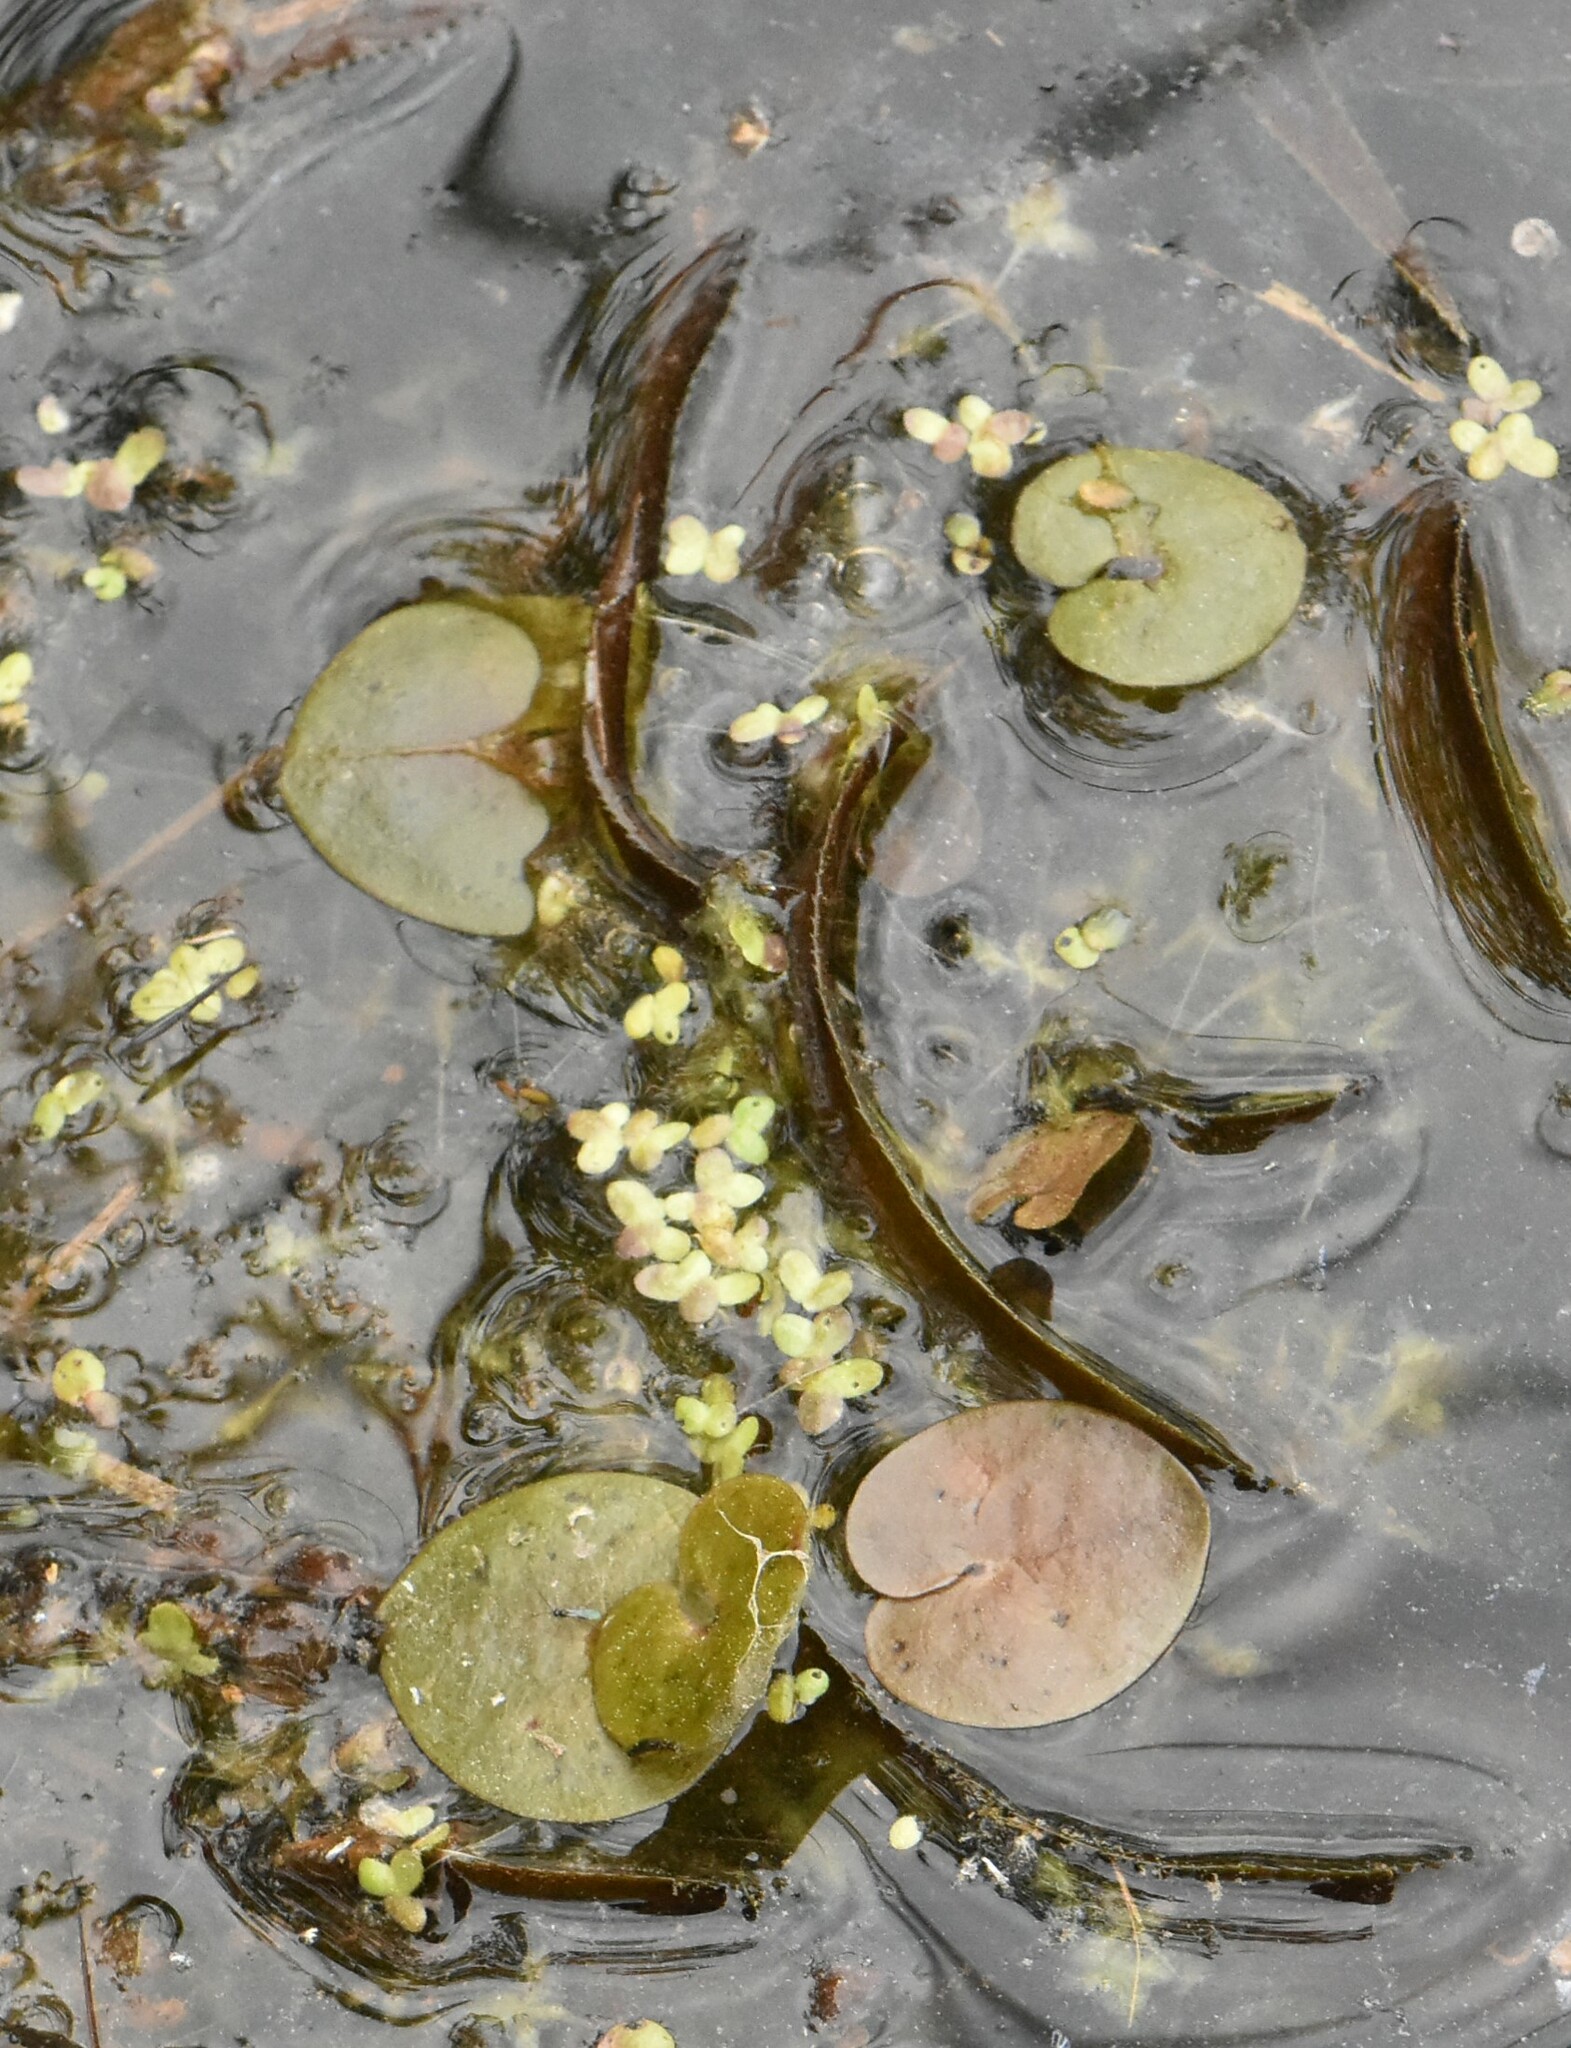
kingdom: Plantae
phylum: Tracheophyta
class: Liliopsida
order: Alismatales
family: Hydrocharitaceae
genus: Hydrocharis
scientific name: Hydrocharis morsus-ranae
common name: Frogbit
